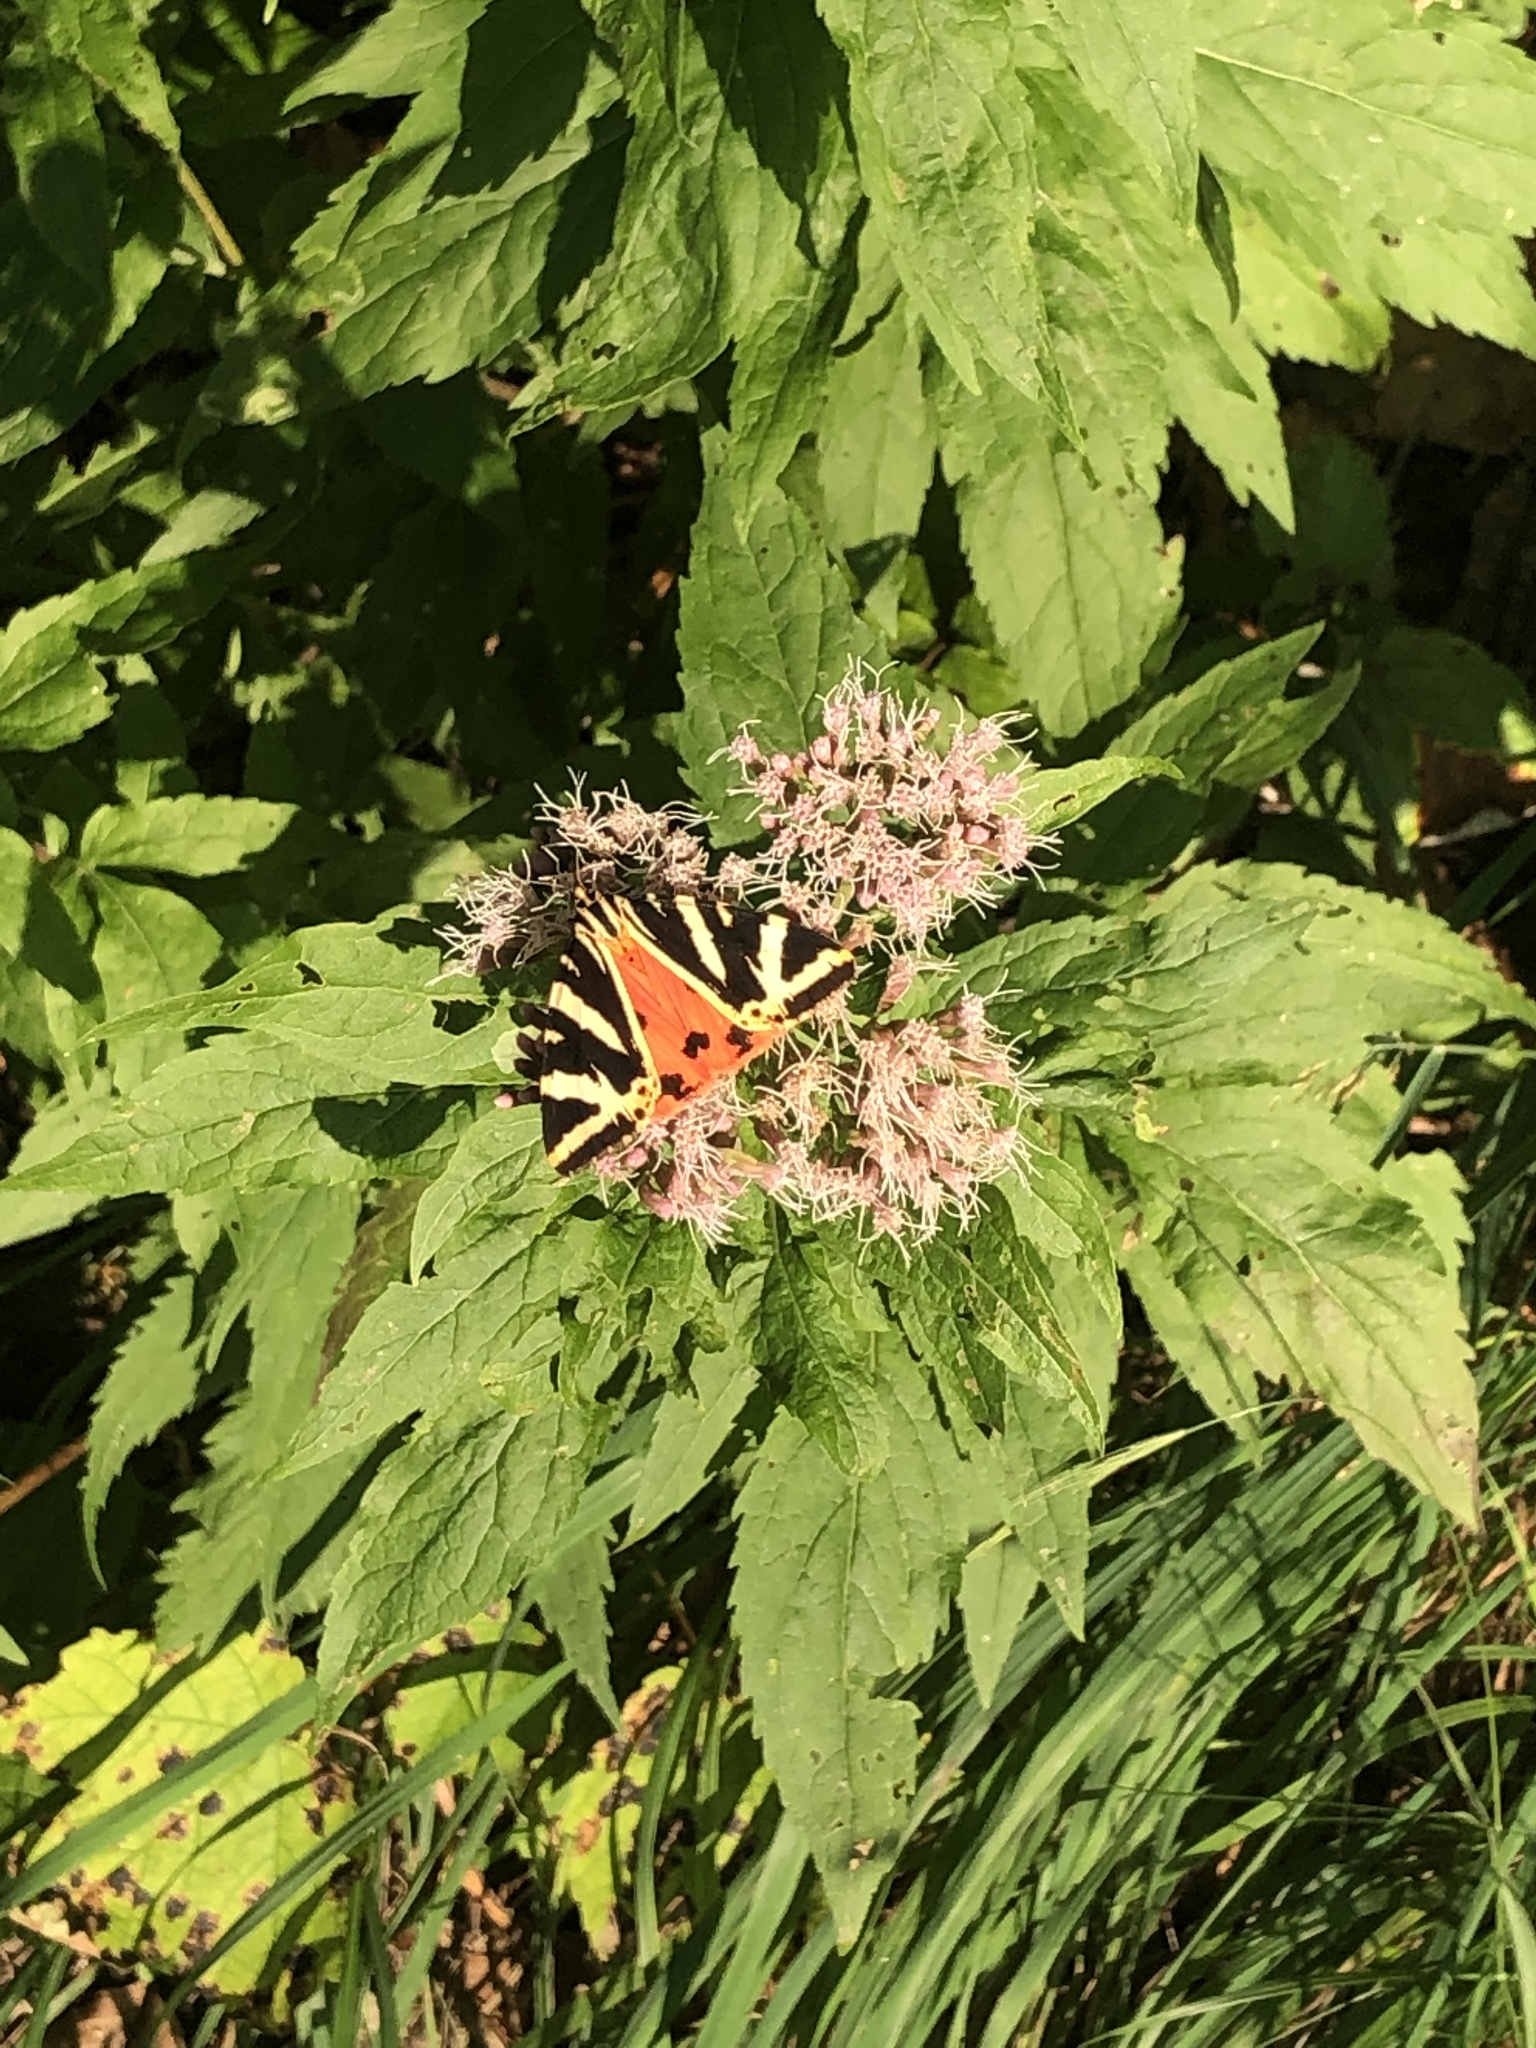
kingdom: Animalia
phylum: Arthropoda
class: Insecta
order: Lepidoptera
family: Erebidae
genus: Euplagia
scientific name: Euplagia quadripunctaria
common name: Jersey tiger
